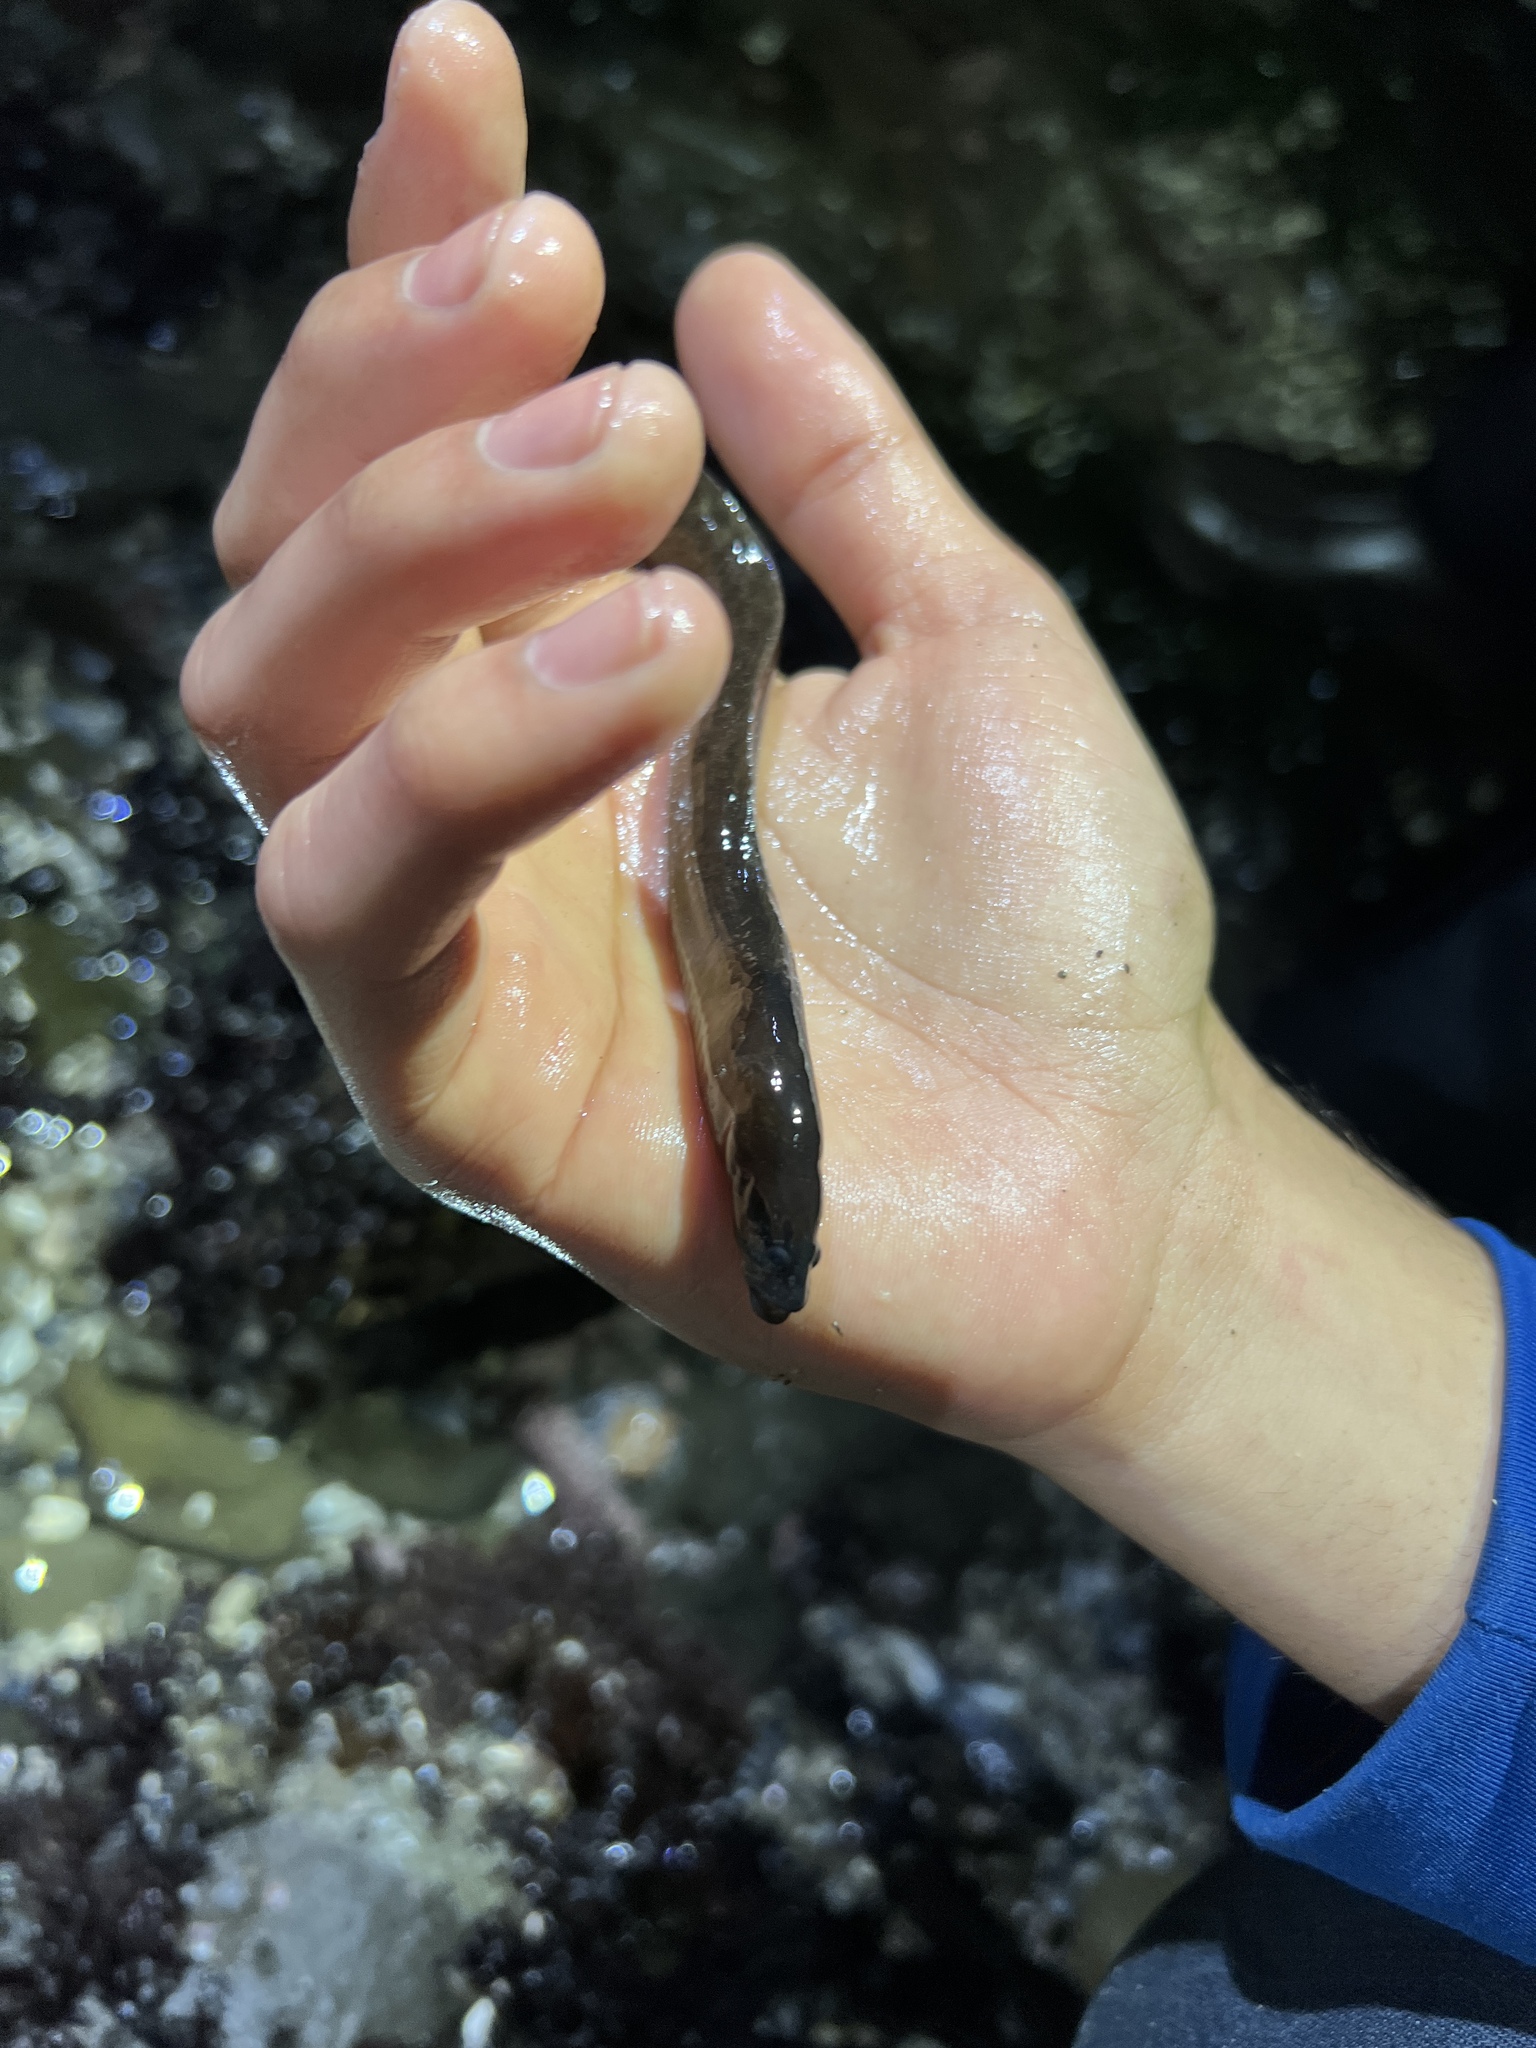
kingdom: Animalia
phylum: Chordata
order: Perciformes
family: Stichaeidae
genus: Xiphister
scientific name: Xiphister atropurpureus
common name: Black prickleback
